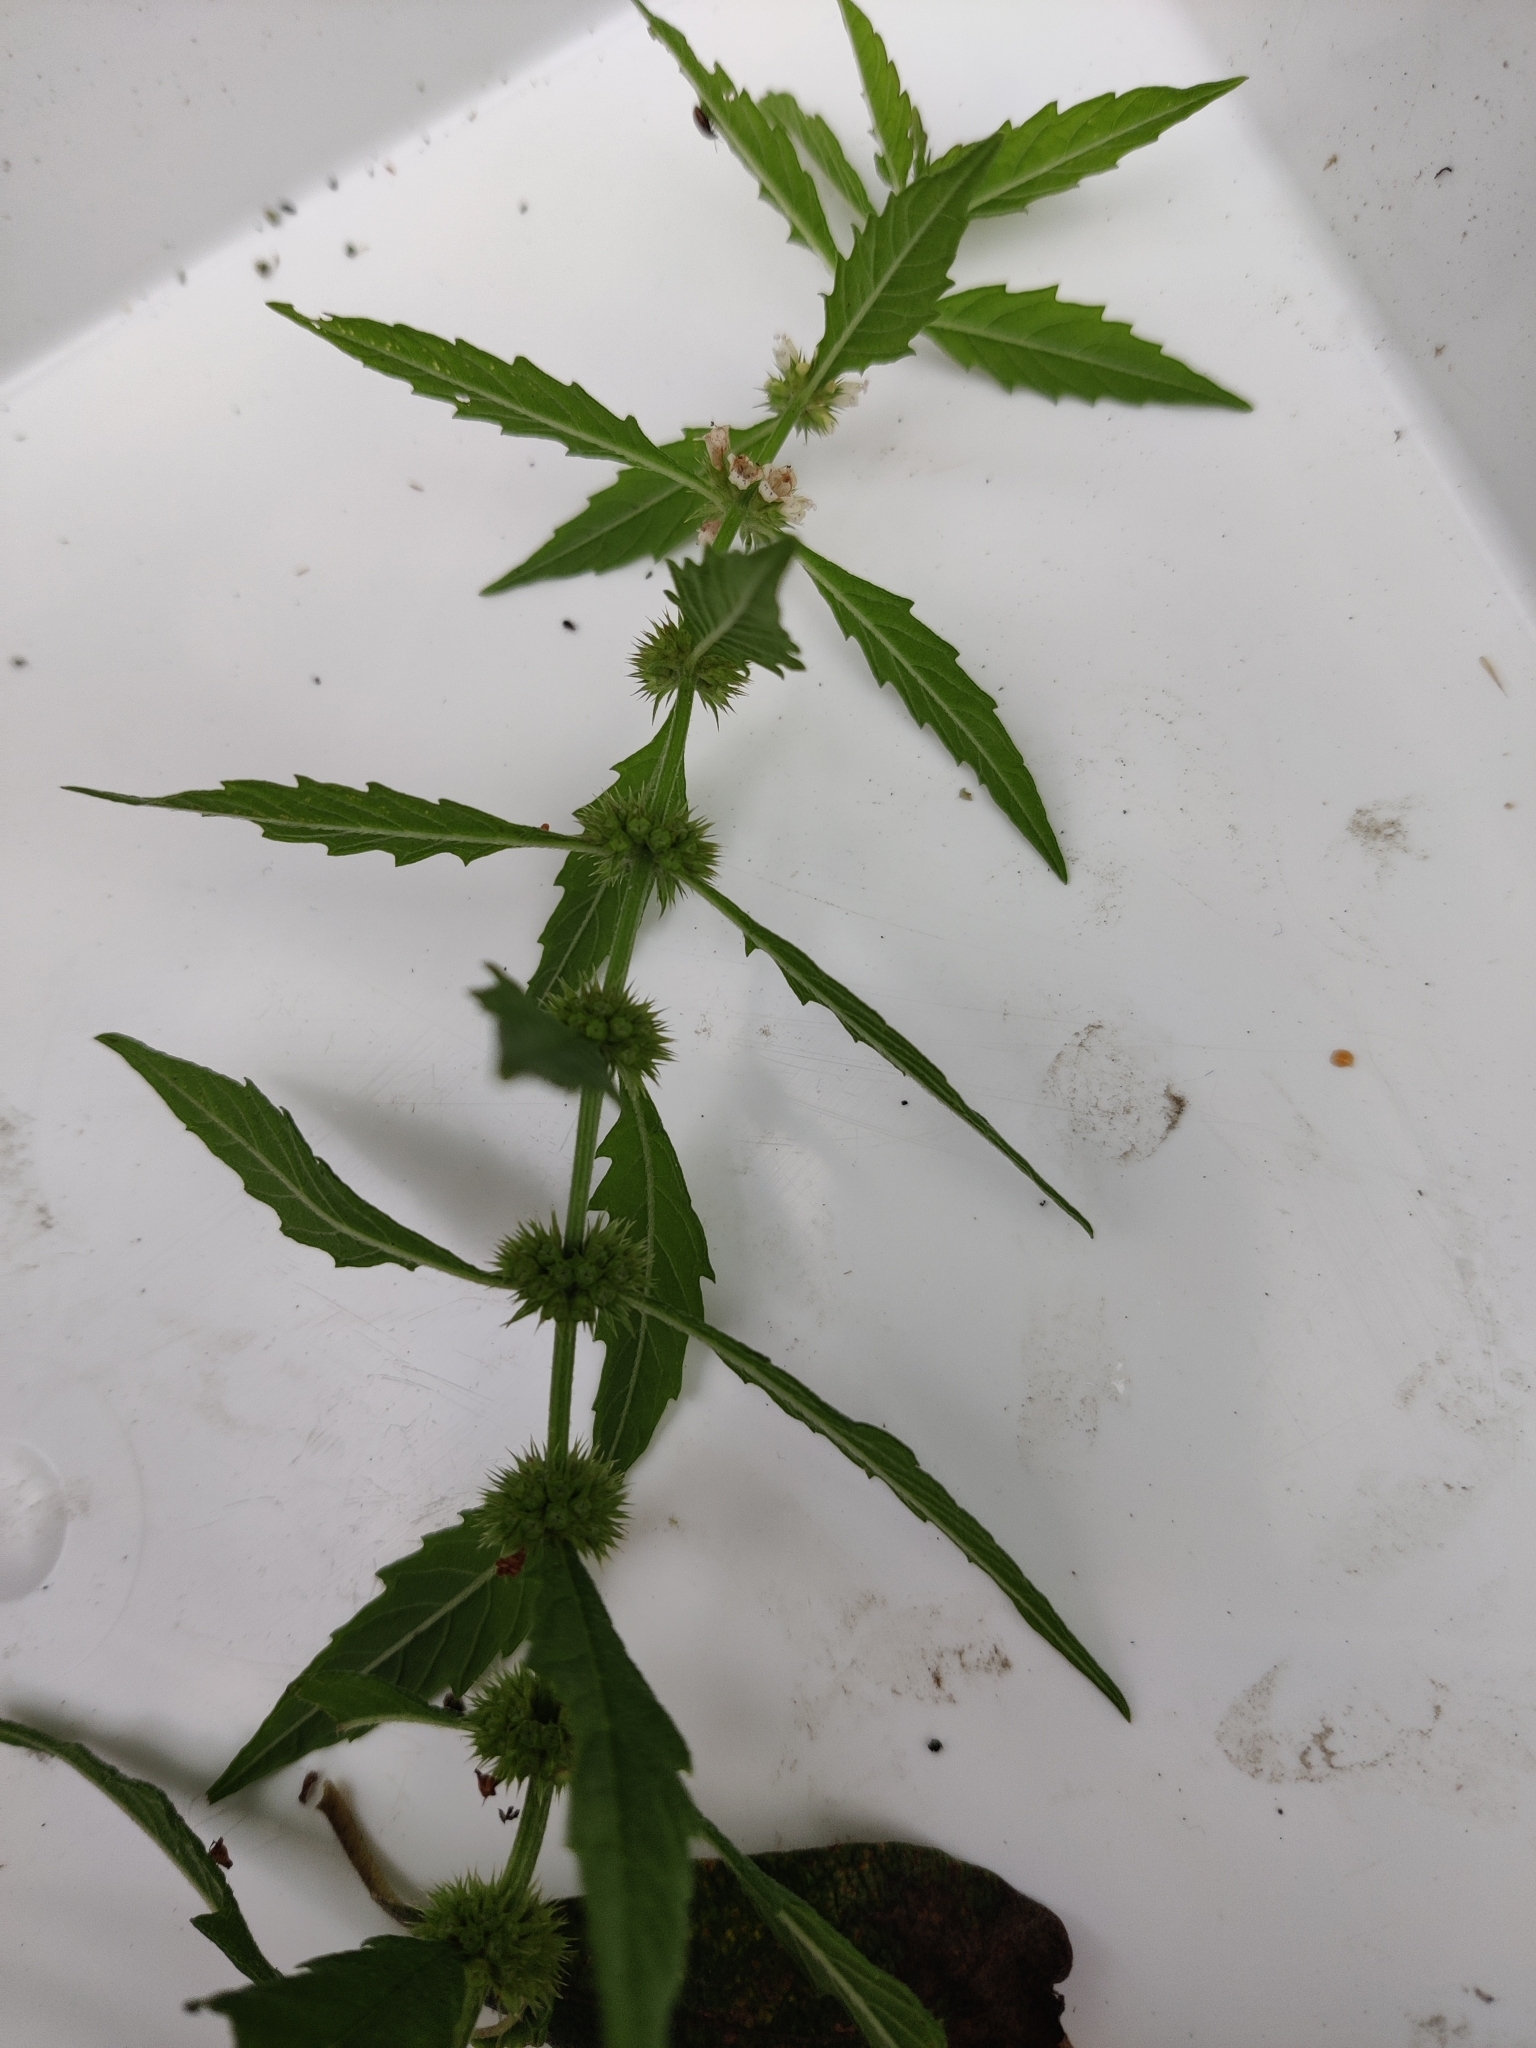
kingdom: Plantae
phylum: Tracheophyta
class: Magnoliopsida
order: Lamiales
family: Lamiaceae
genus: Lycopus
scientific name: Lycopus europaeus
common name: European bugleweed
